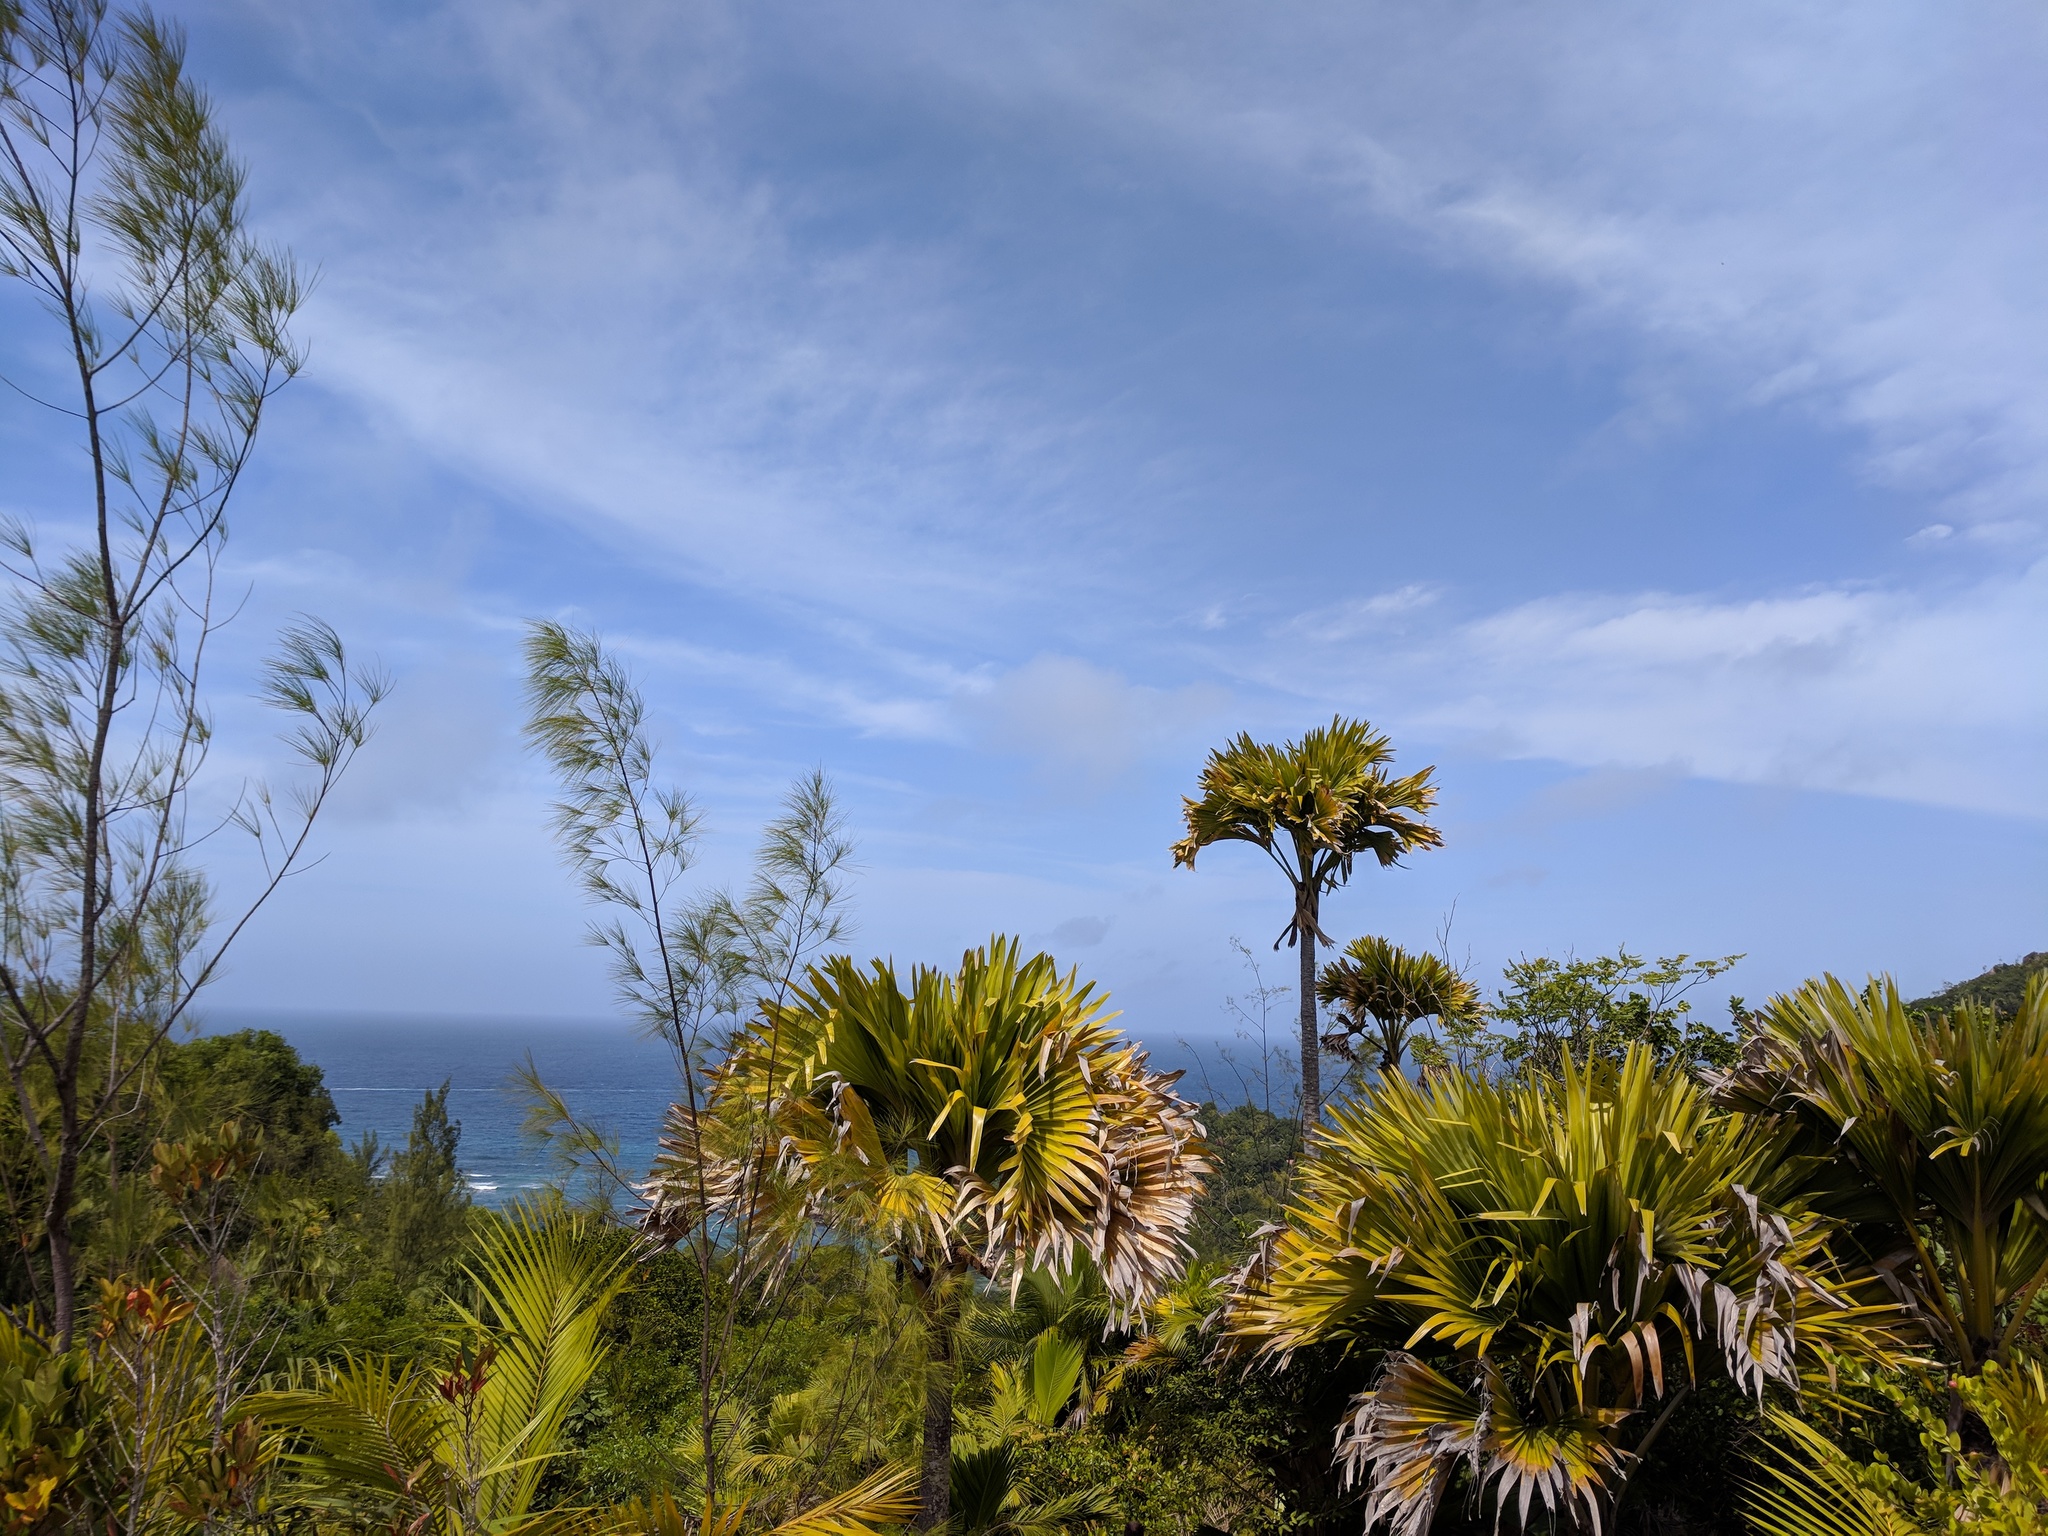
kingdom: Plantae
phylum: Tracheophyta
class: Liliopsida
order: Arecales
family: Arecaceae
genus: Lodoicea
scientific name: Lodoicea maldivica
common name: Double coconut palm
